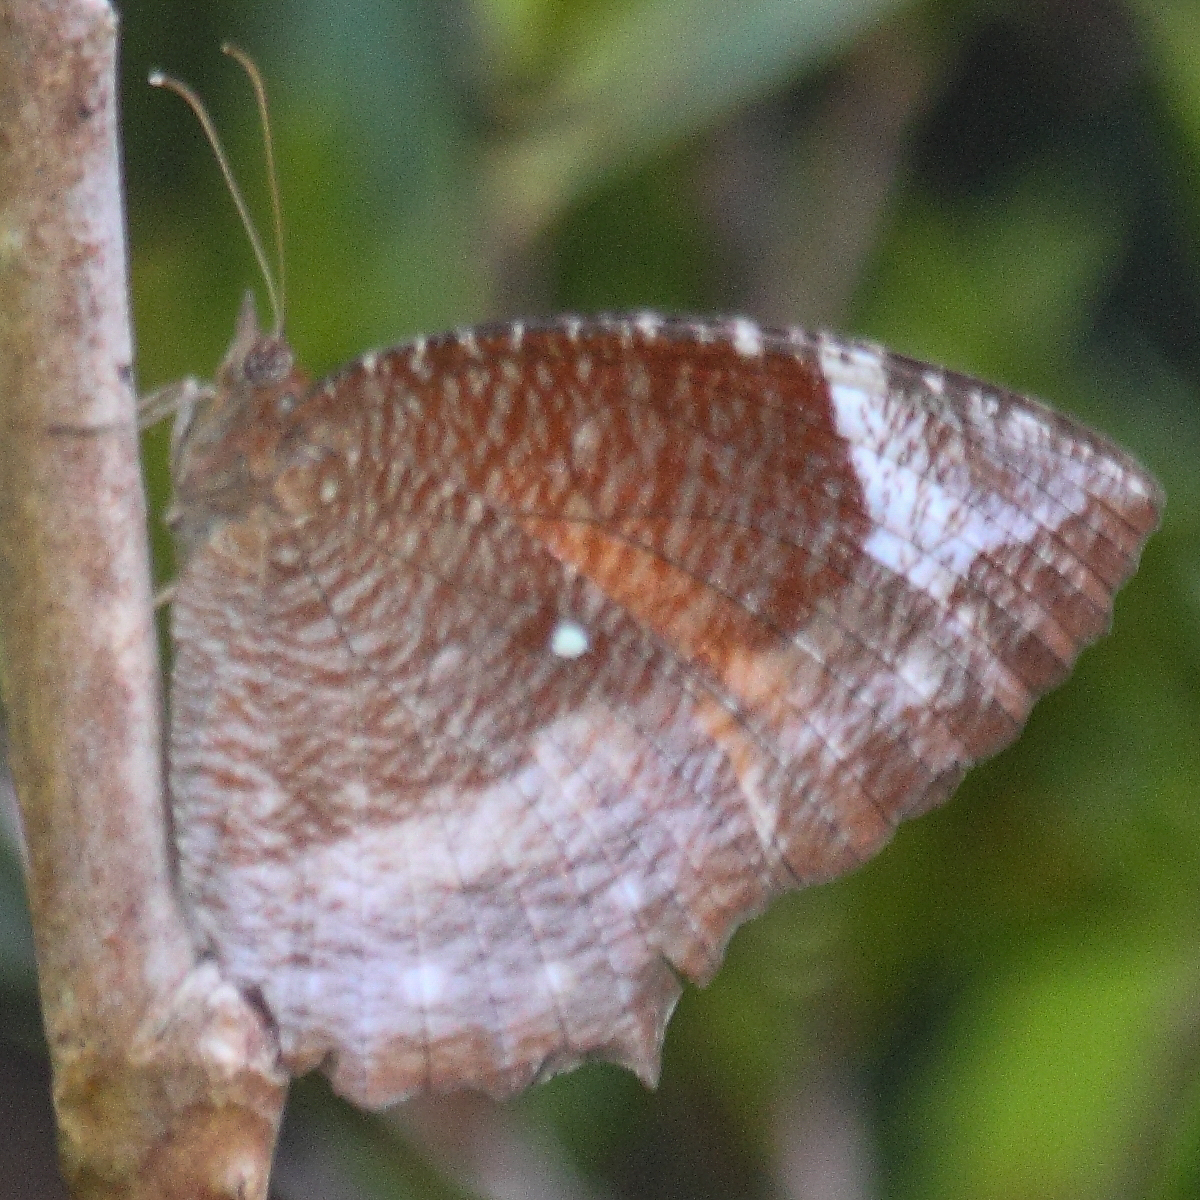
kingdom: Animalia
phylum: Arthropoda
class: Insecta
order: Lepidoptera
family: Nymphalidae
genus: Elymnias
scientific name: Elymnias hypermnestra
